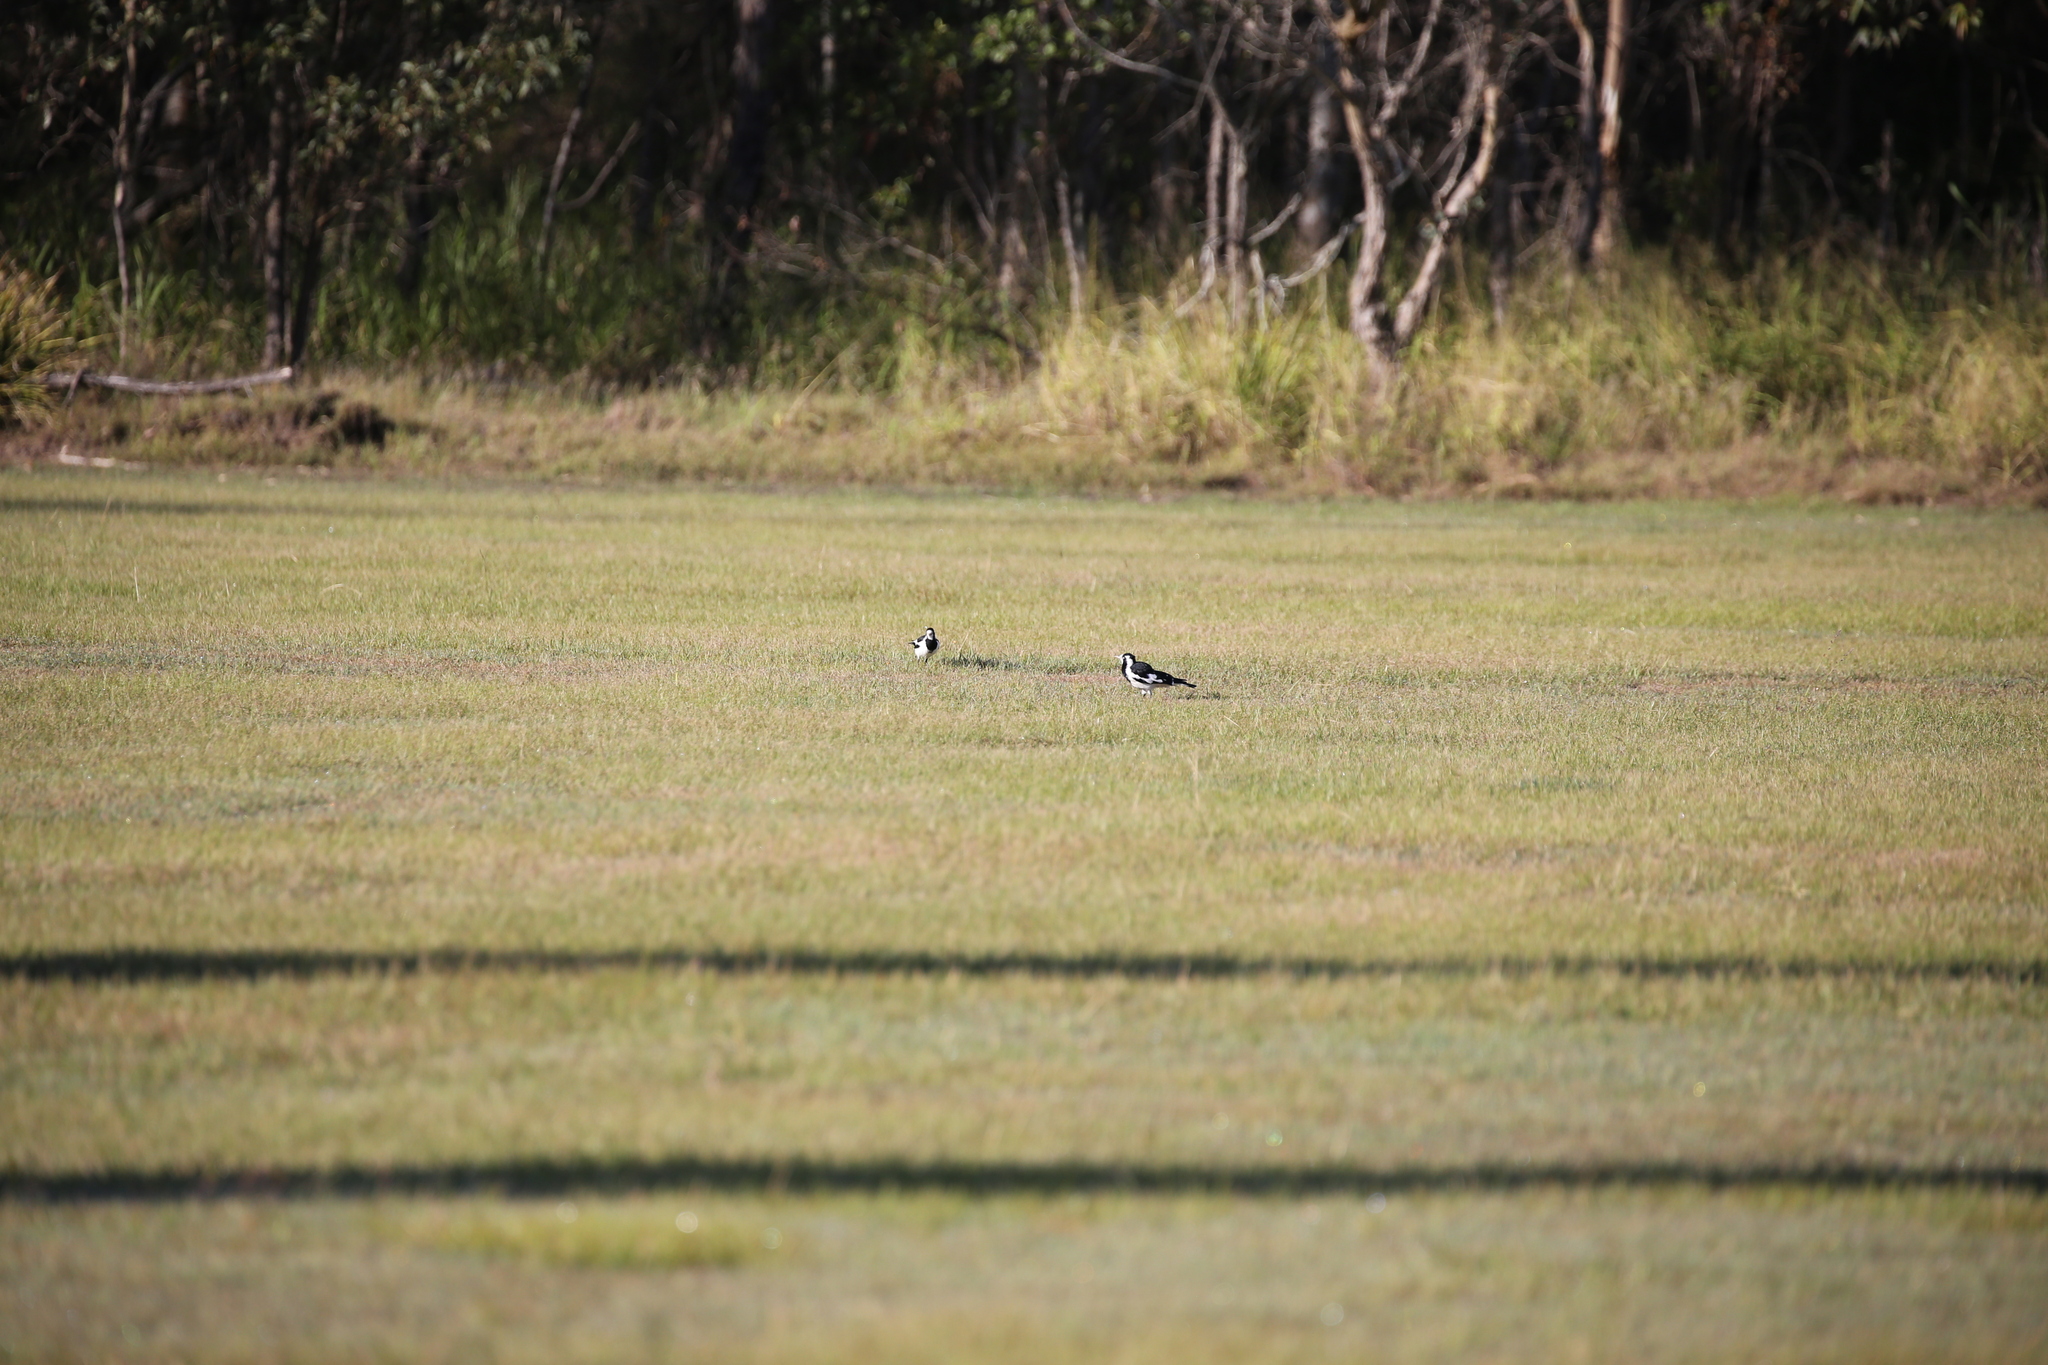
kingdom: Animalia
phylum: Chordata
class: Aves
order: Passeriformes
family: Monarchidae
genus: Grallina
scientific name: Grallina cyanoleuca
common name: Magpie-lark
